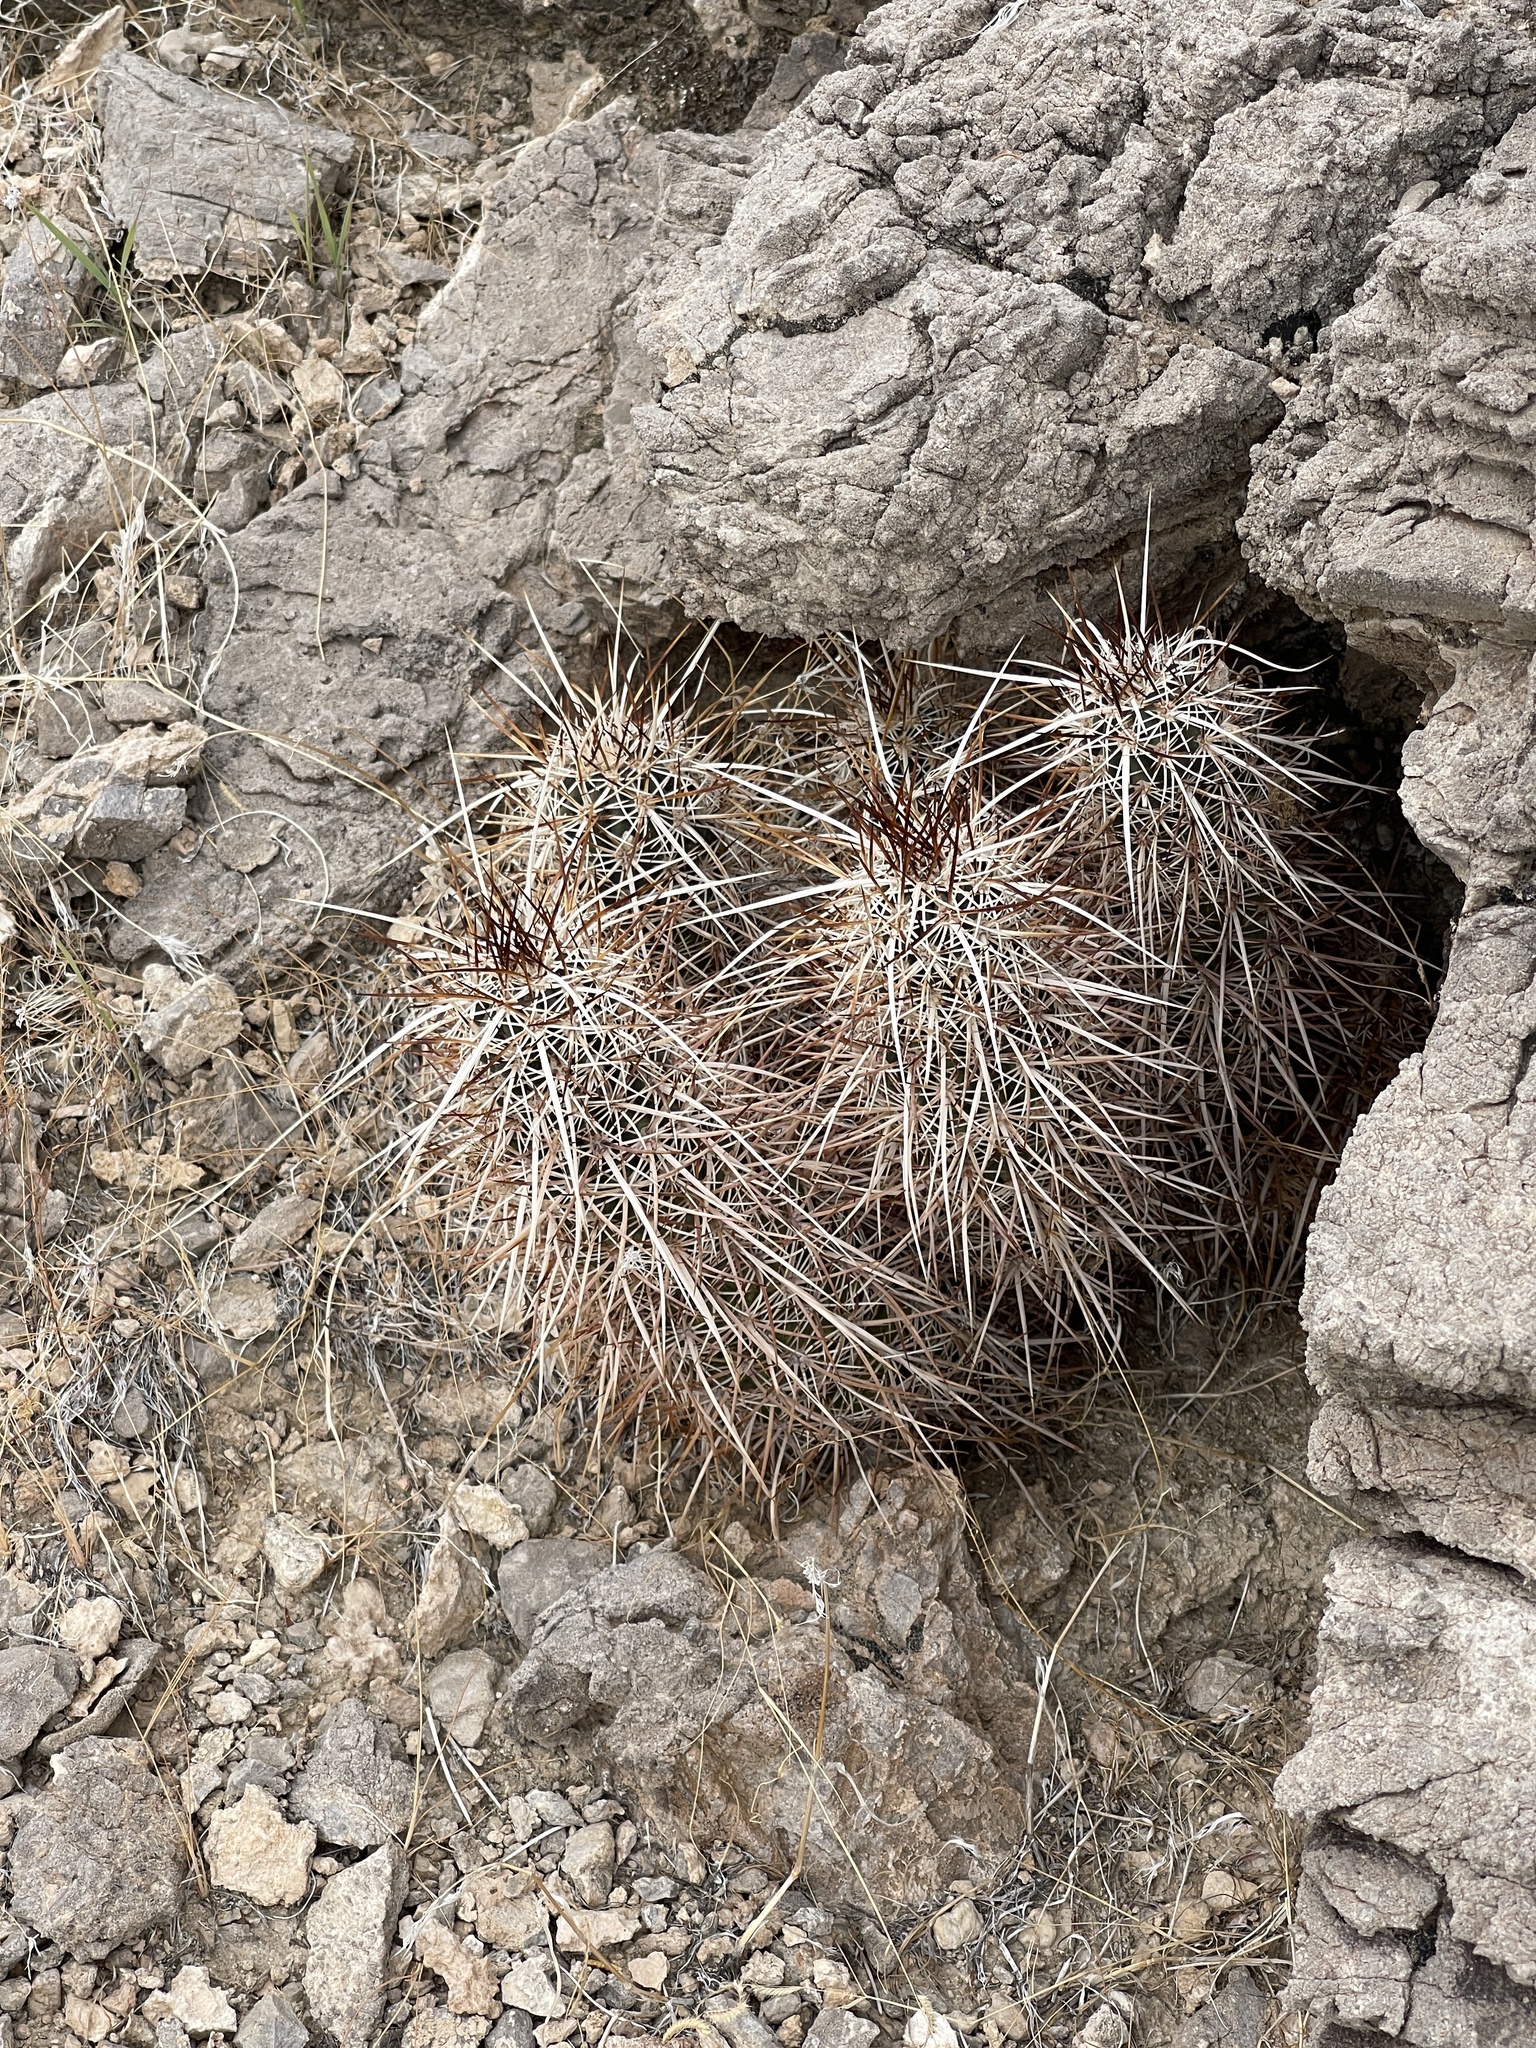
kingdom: Plantae
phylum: Tracheophyta
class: Magnoliopsida
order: Caryophyllales
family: Cactaceae
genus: Echinocereus
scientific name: Echinocereus engelmannii
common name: Engelmann's hedgehog cactus
